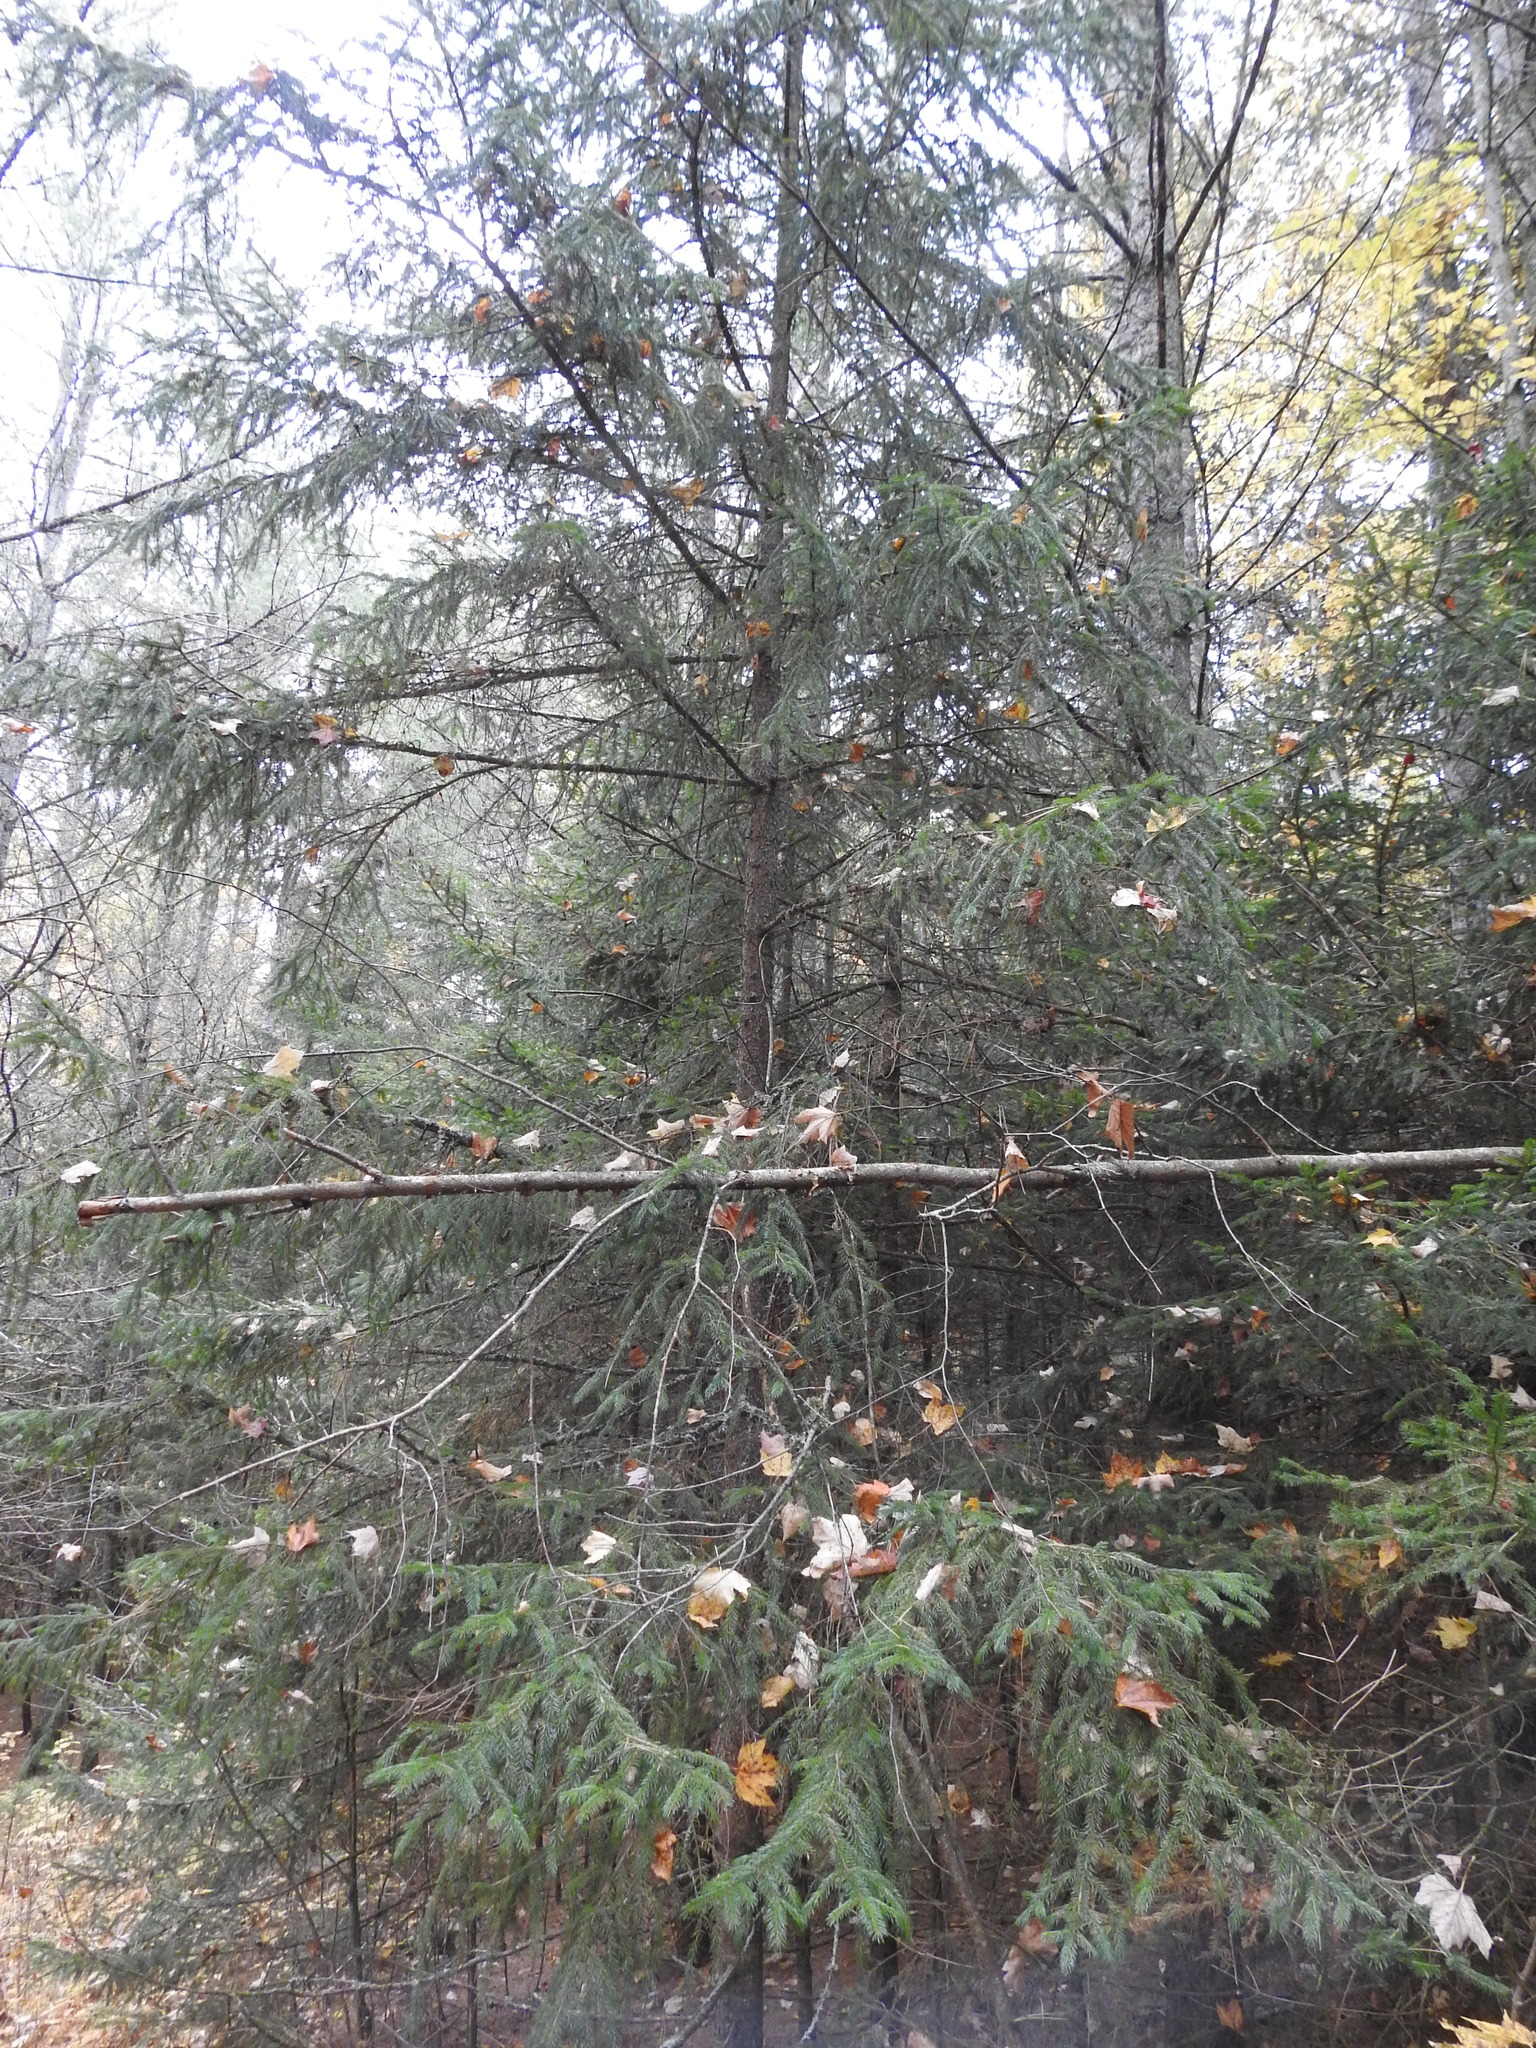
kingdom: Plantae
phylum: Tracheophyta
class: Pinopsida
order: Pinales
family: Pinaceae
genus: Picea
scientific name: Picea rubens
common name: Red spruce
